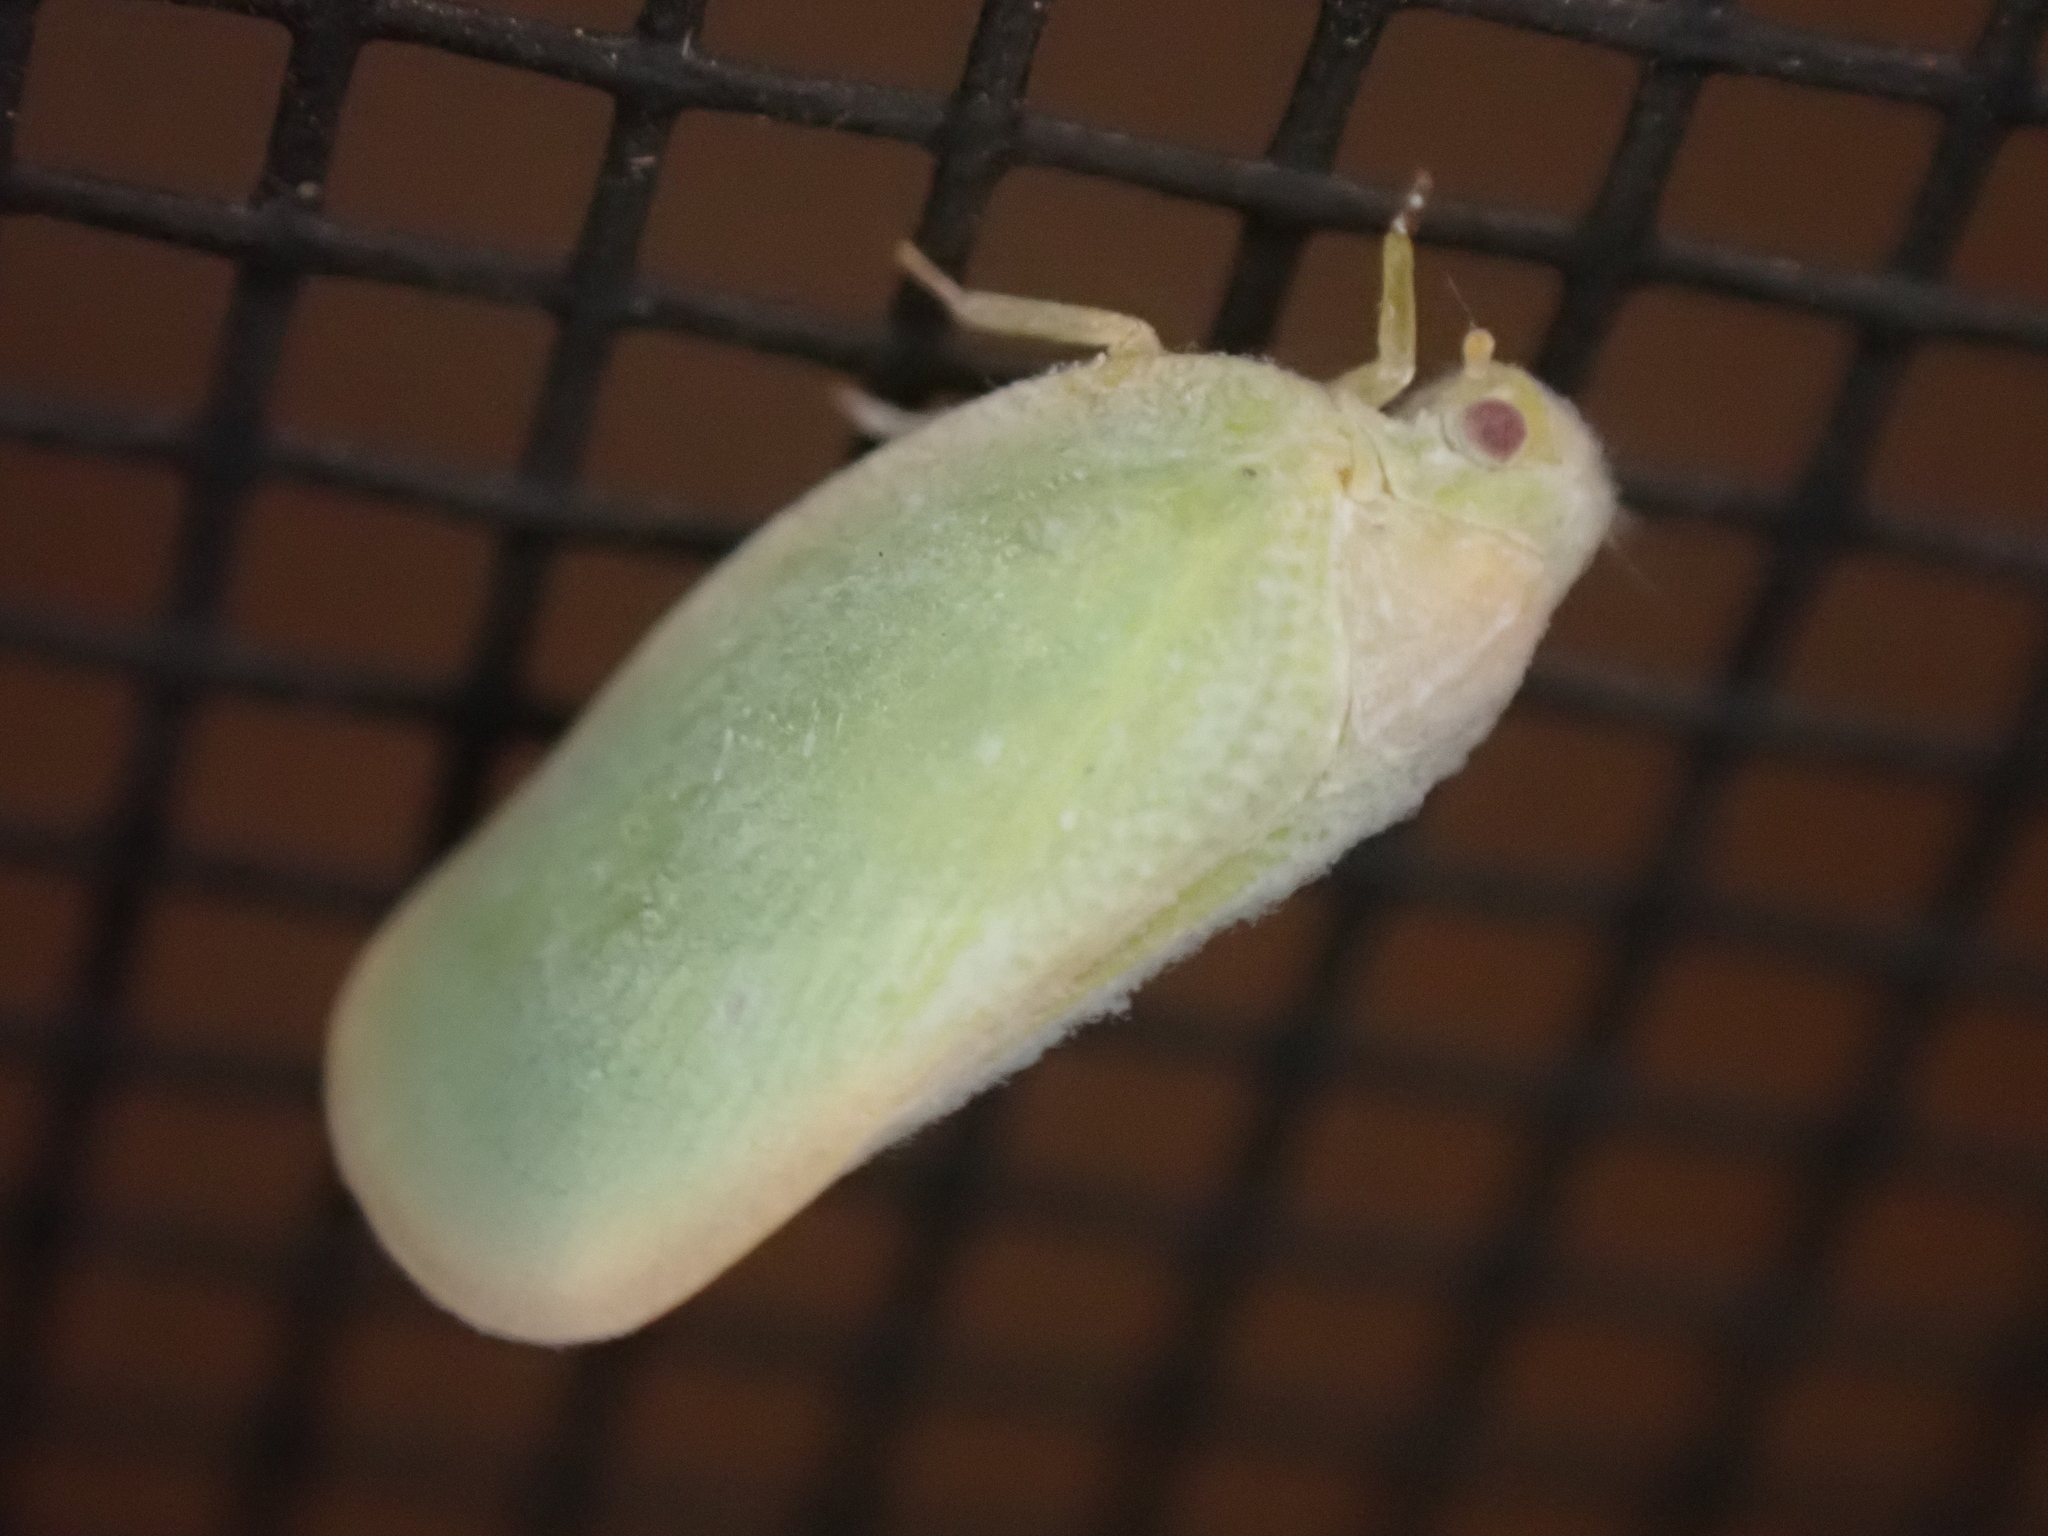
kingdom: Animalia
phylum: Arthropoda
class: Insecta
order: Hemiptera
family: Flatidae
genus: Ormenoides
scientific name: Ormenoides venusta
